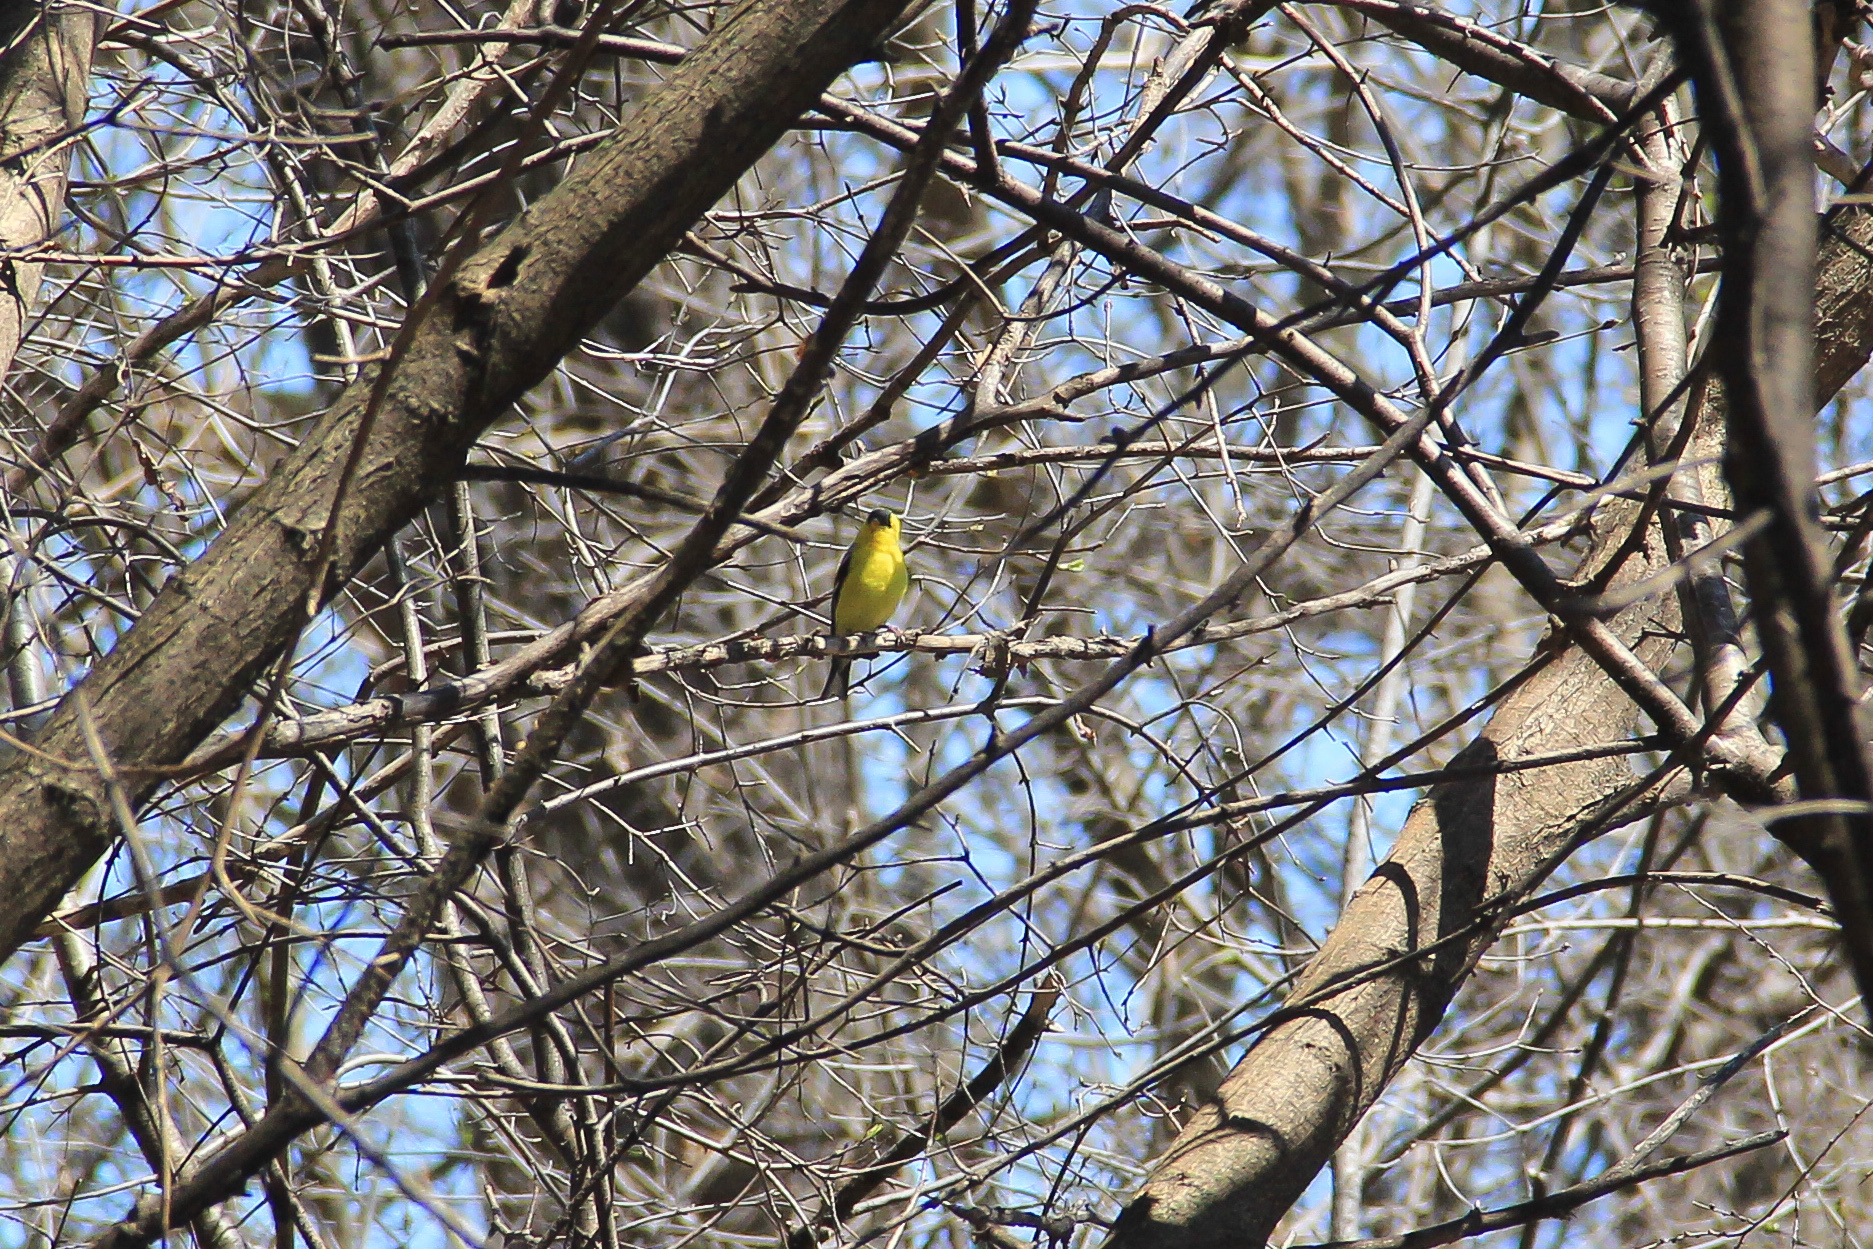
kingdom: Animalia
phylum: Chordata
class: Aves
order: Passeriformes
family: Fringillidae
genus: Spinus
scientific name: Spinus tristis
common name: American goldfinch
